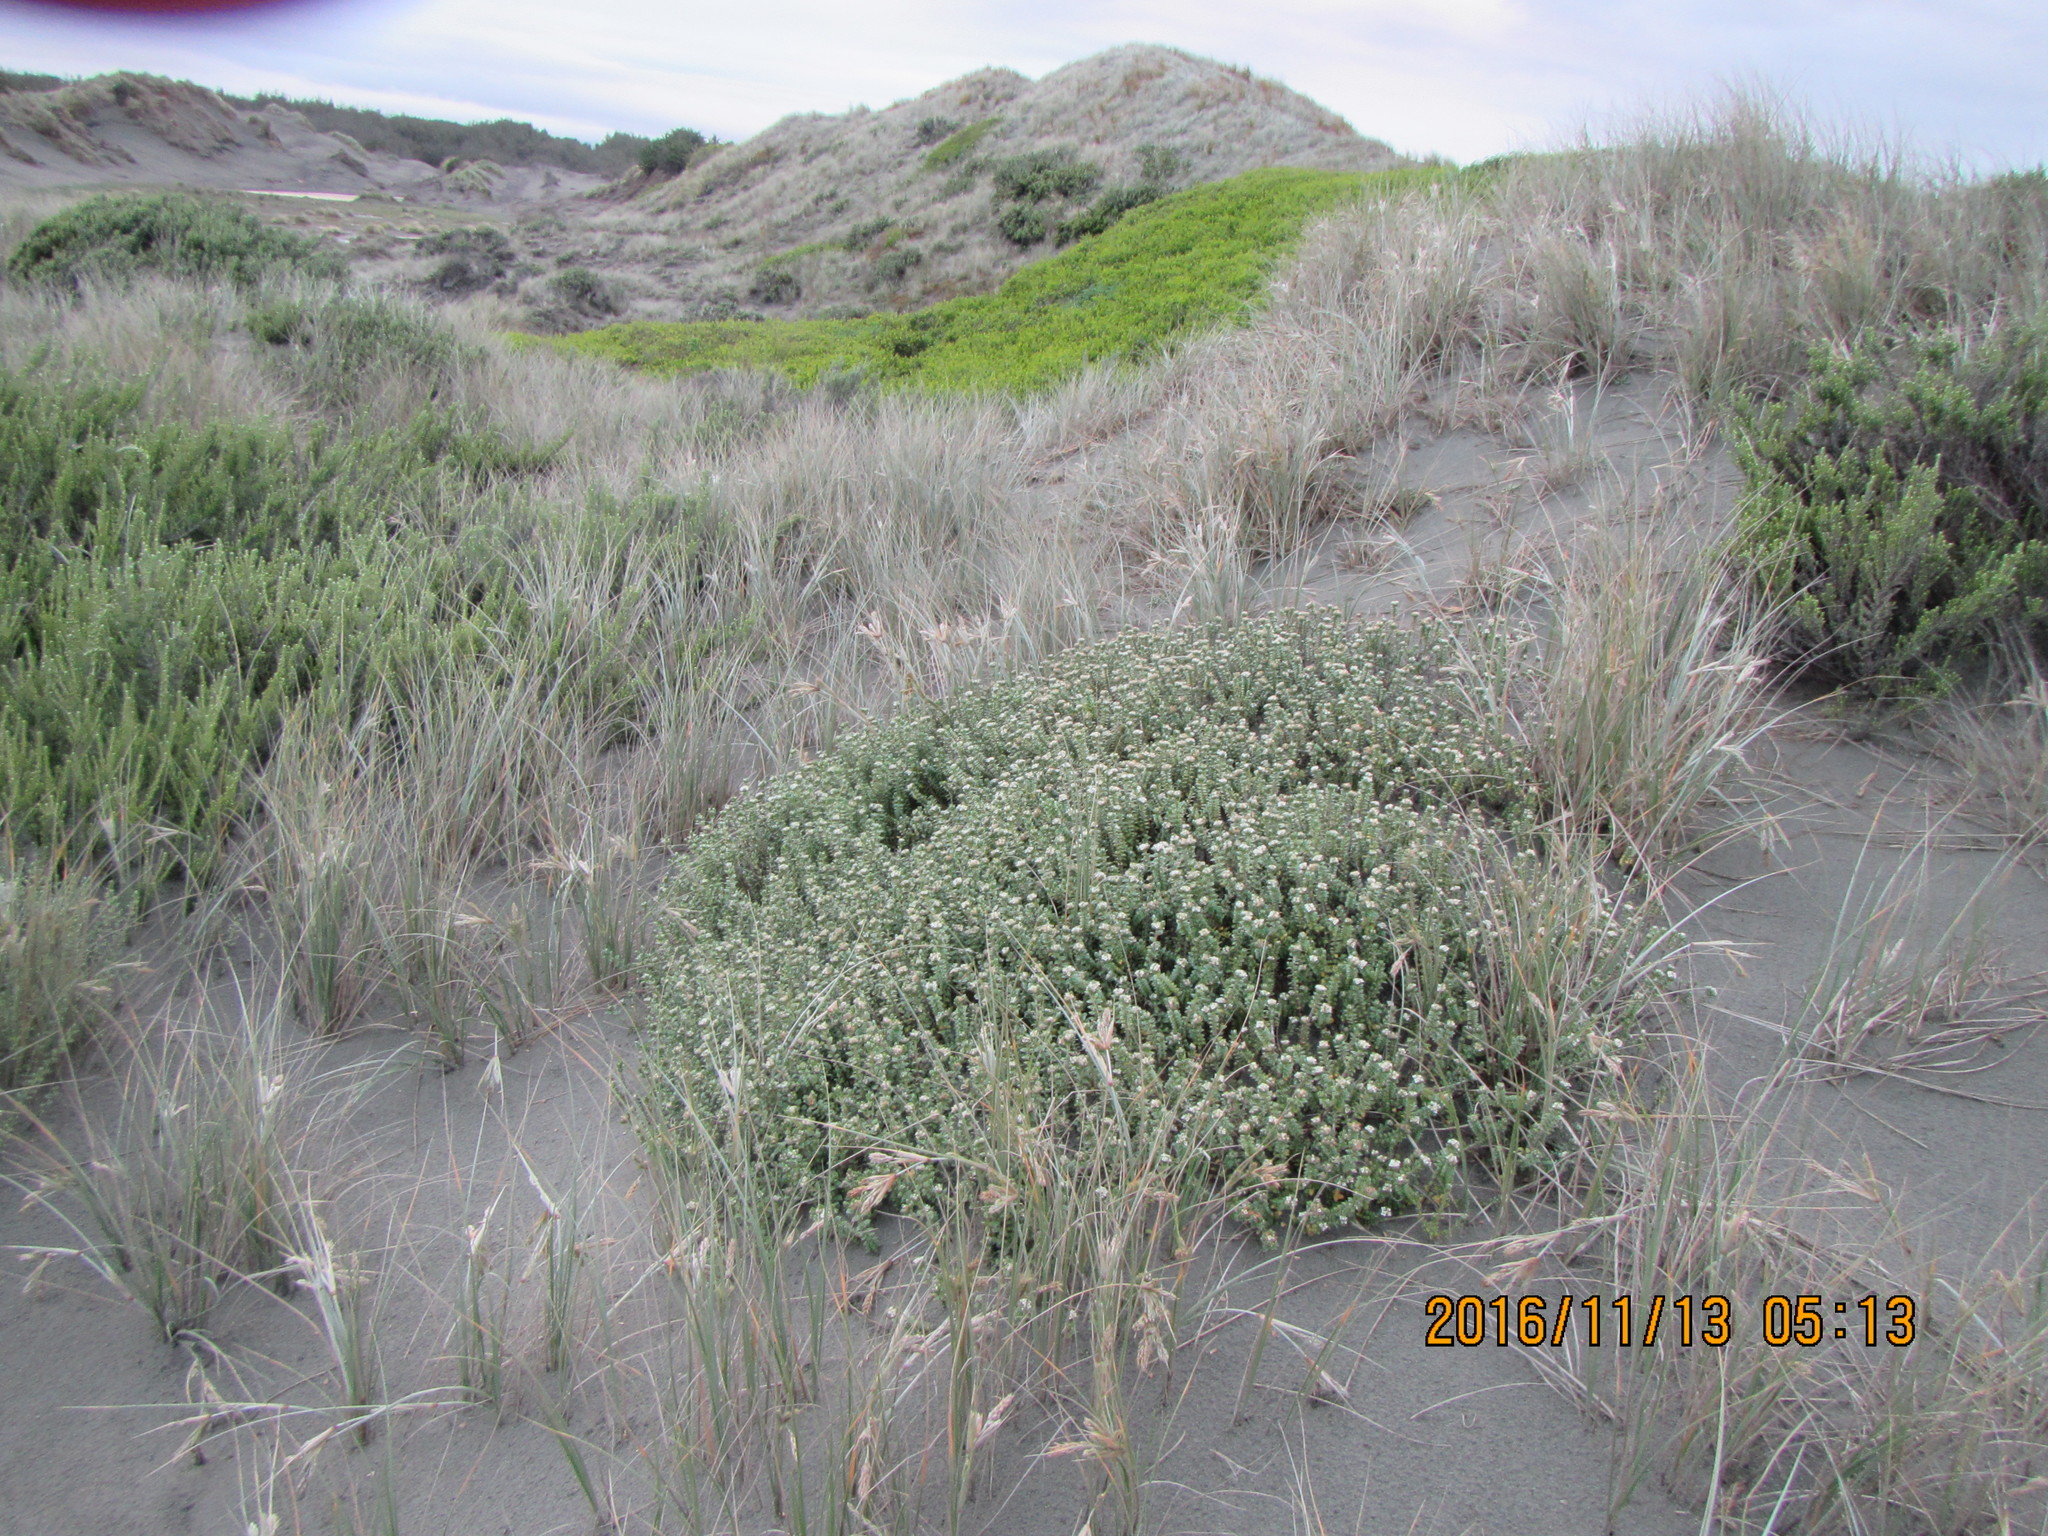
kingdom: Plantae
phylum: Tracheophyta
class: Magnoliopsida
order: Malvales
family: Thymelaeaceae
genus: Pimelea
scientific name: Pimelea villosa
